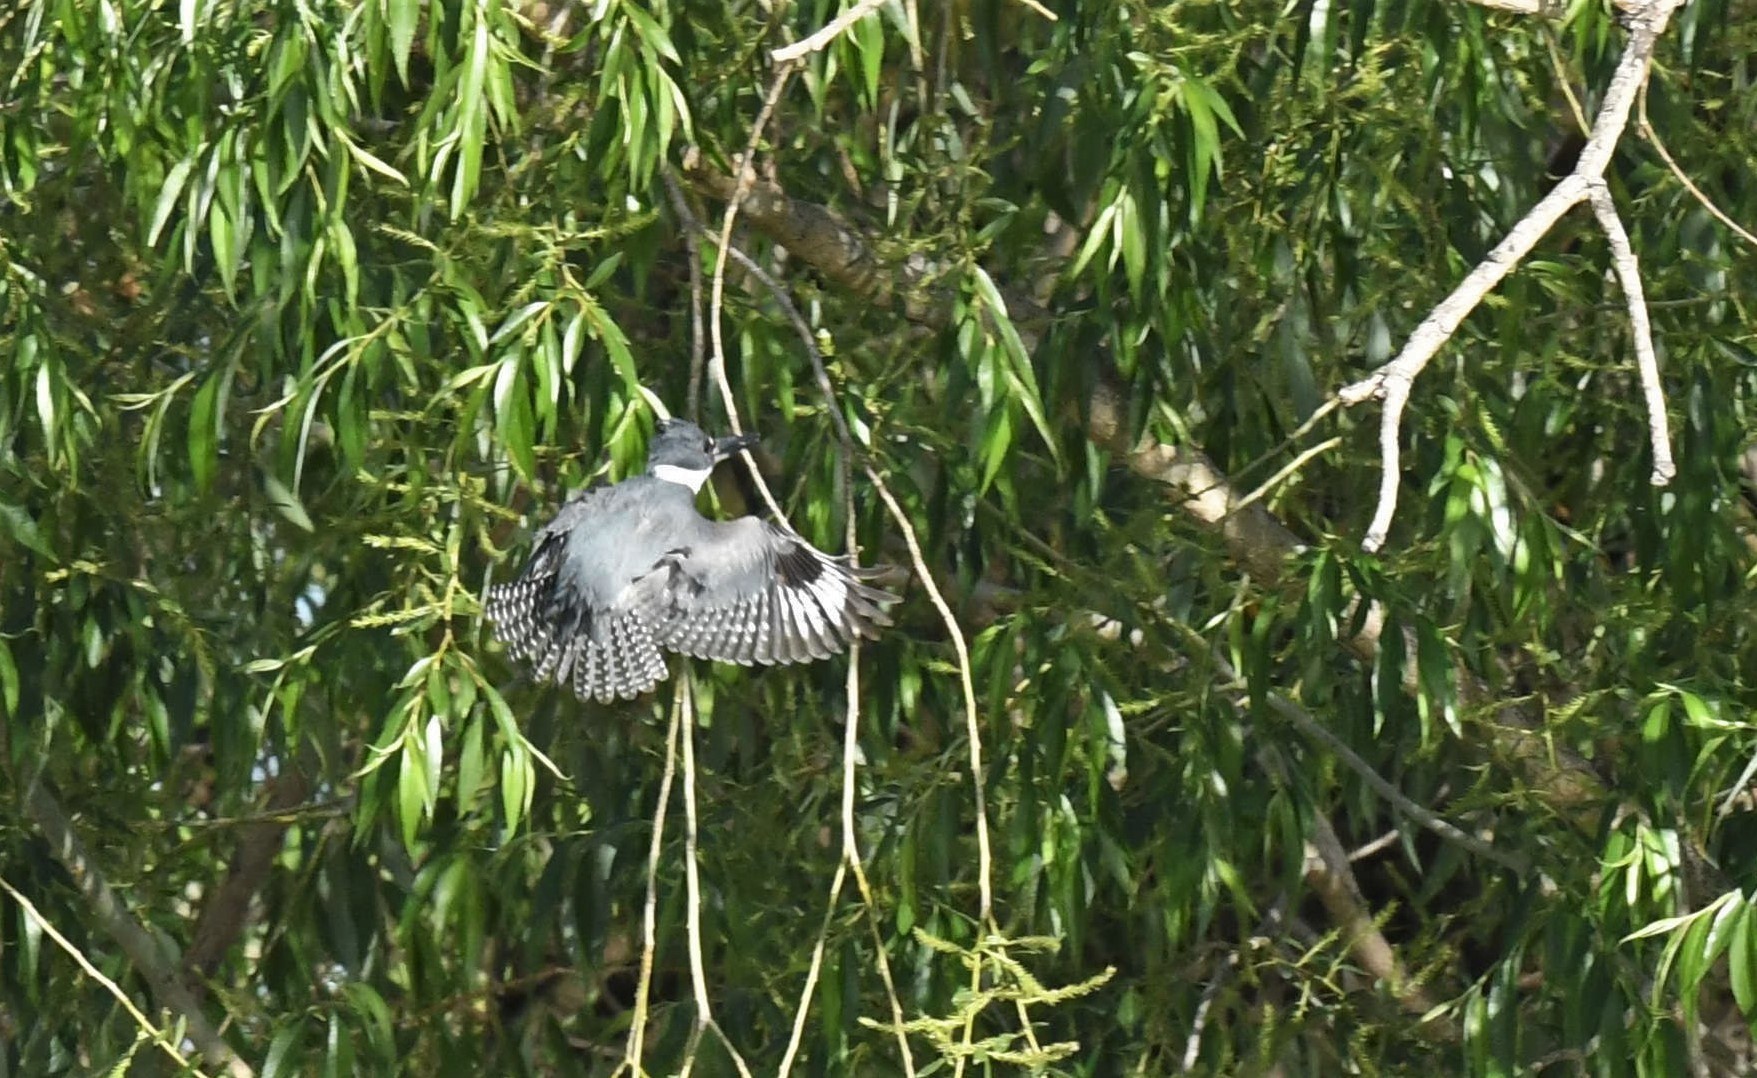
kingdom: Animalia
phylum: Chordata
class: Aves
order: Coraciiformes
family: Alcedinidae
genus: Megaceryle
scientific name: Megaceryle alcyon
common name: Belted kingfisher
